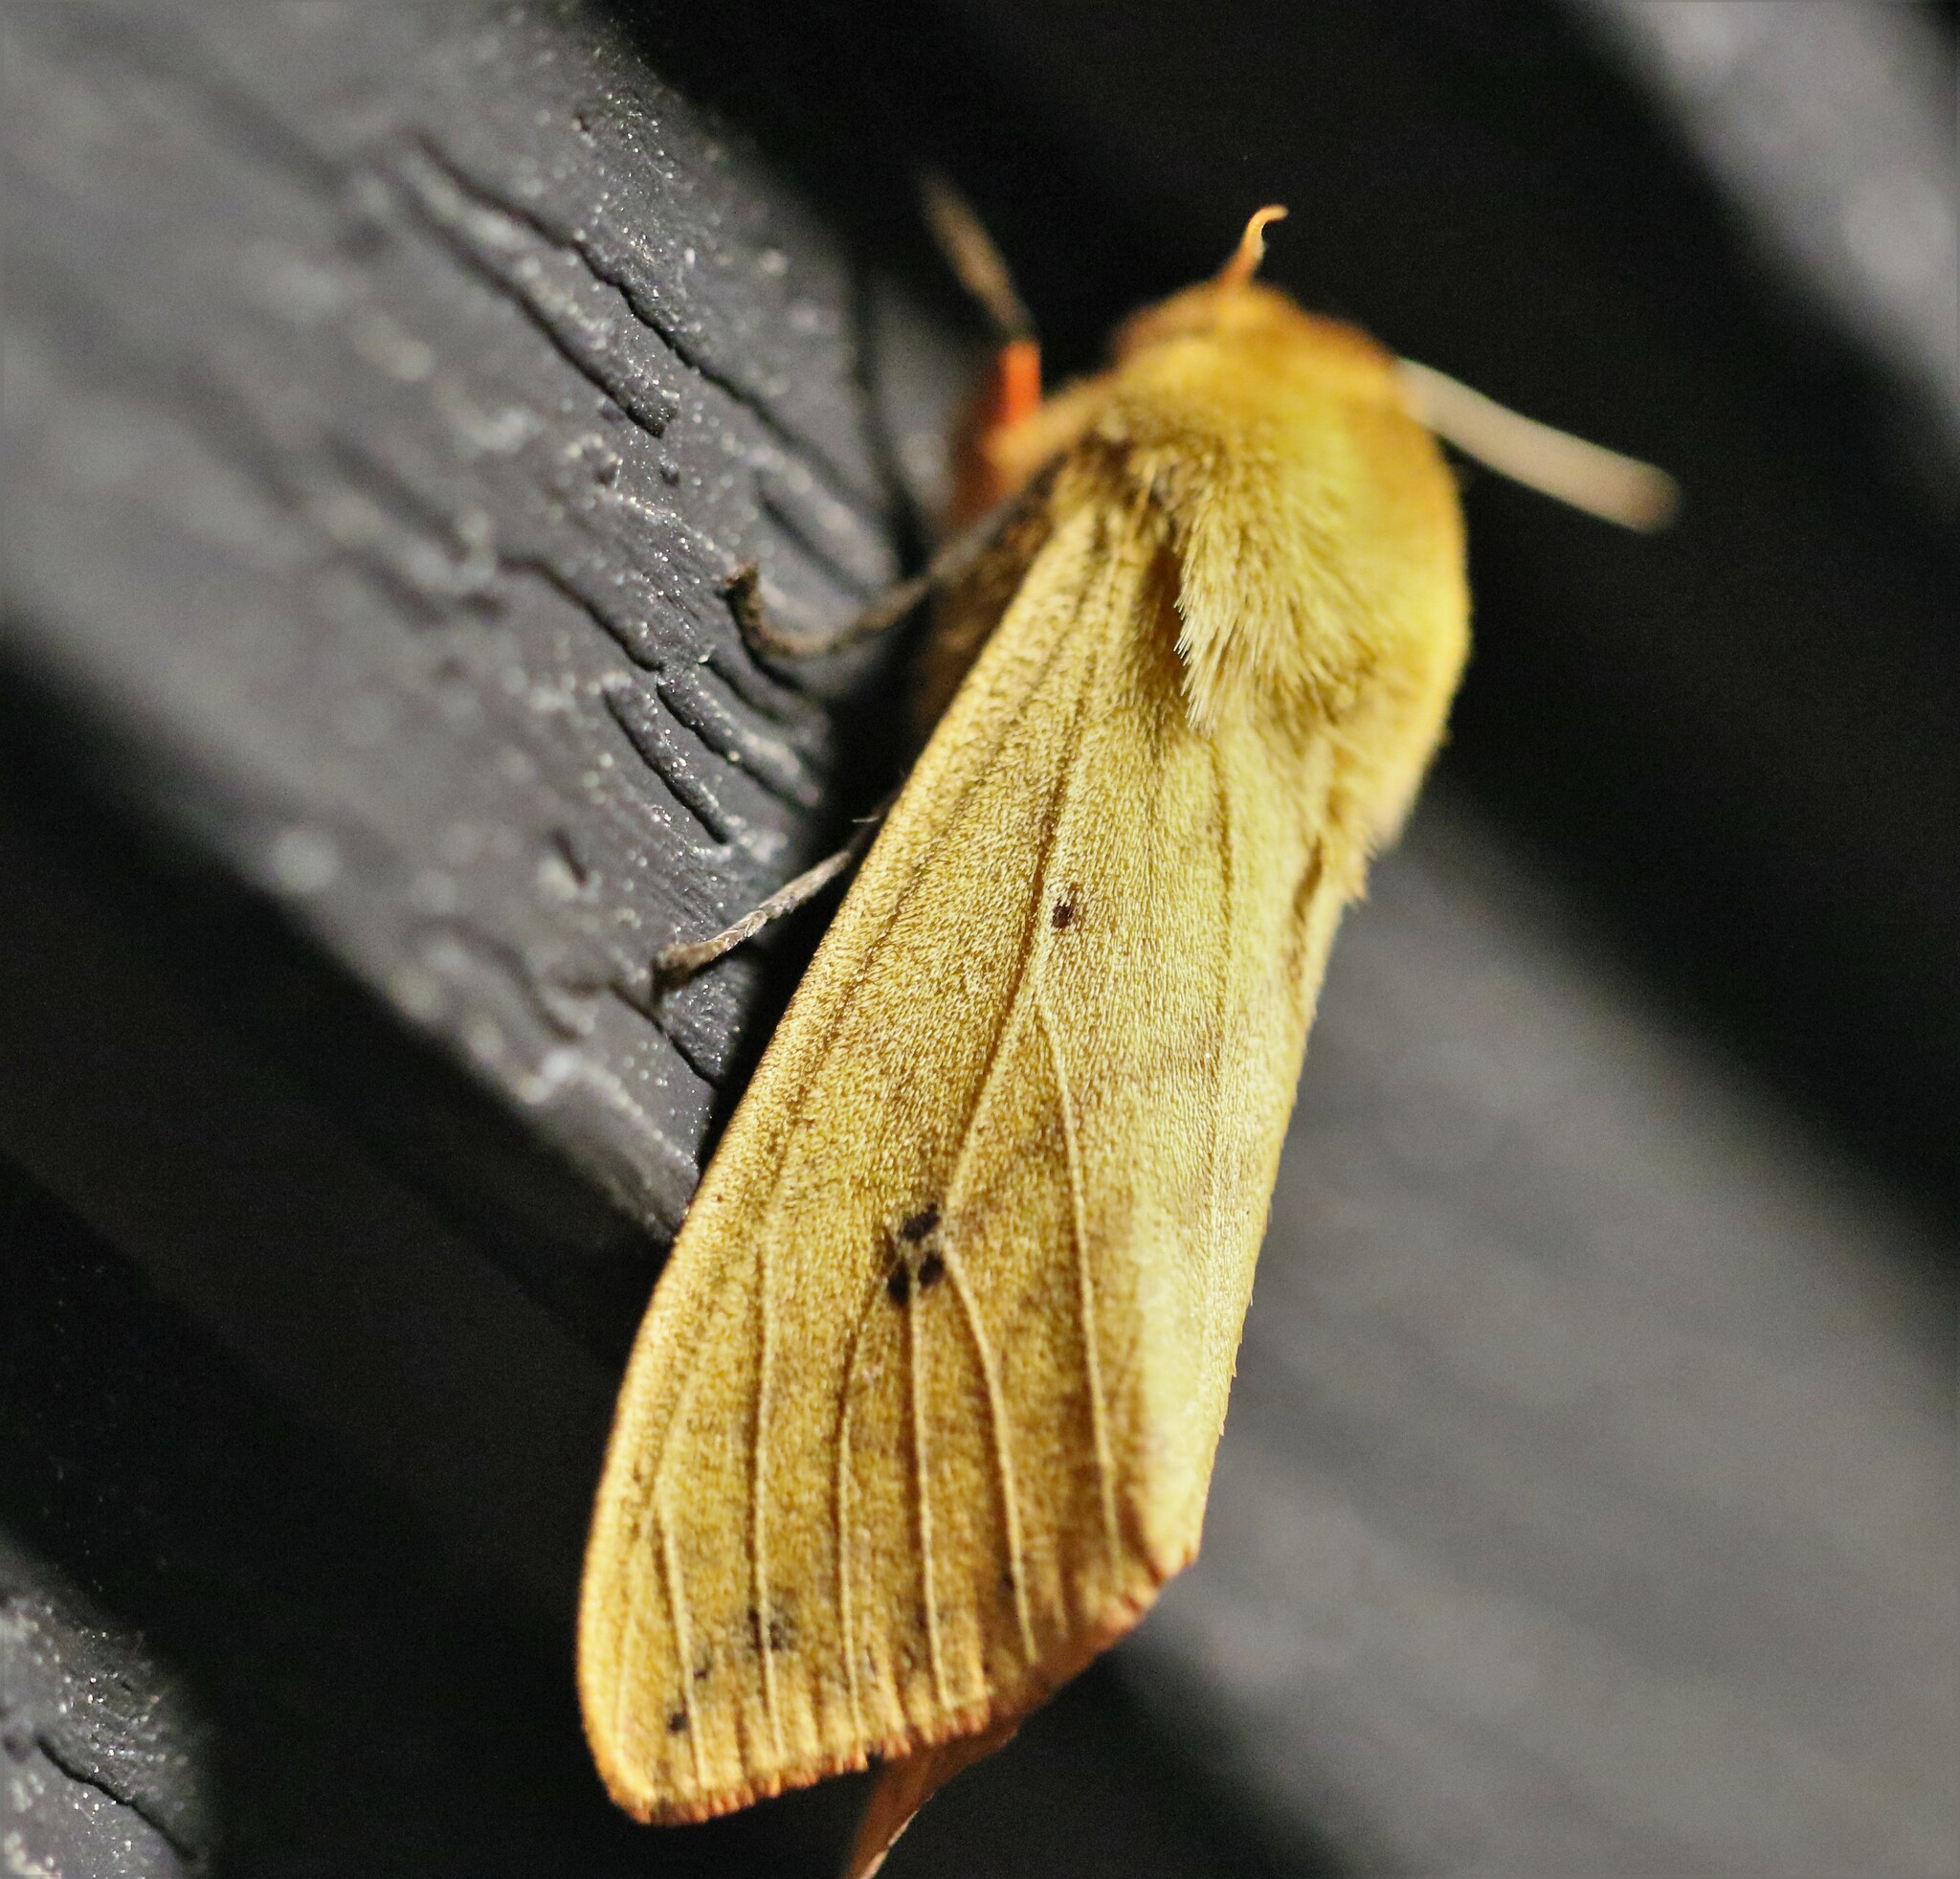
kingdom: Animalia
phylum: Arthropoda
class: Insecta
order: Lepidoptera
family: Erebidae
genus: Pyrrharctia
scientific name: Pyrrharctia isabella
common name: Isabella tiger moth
